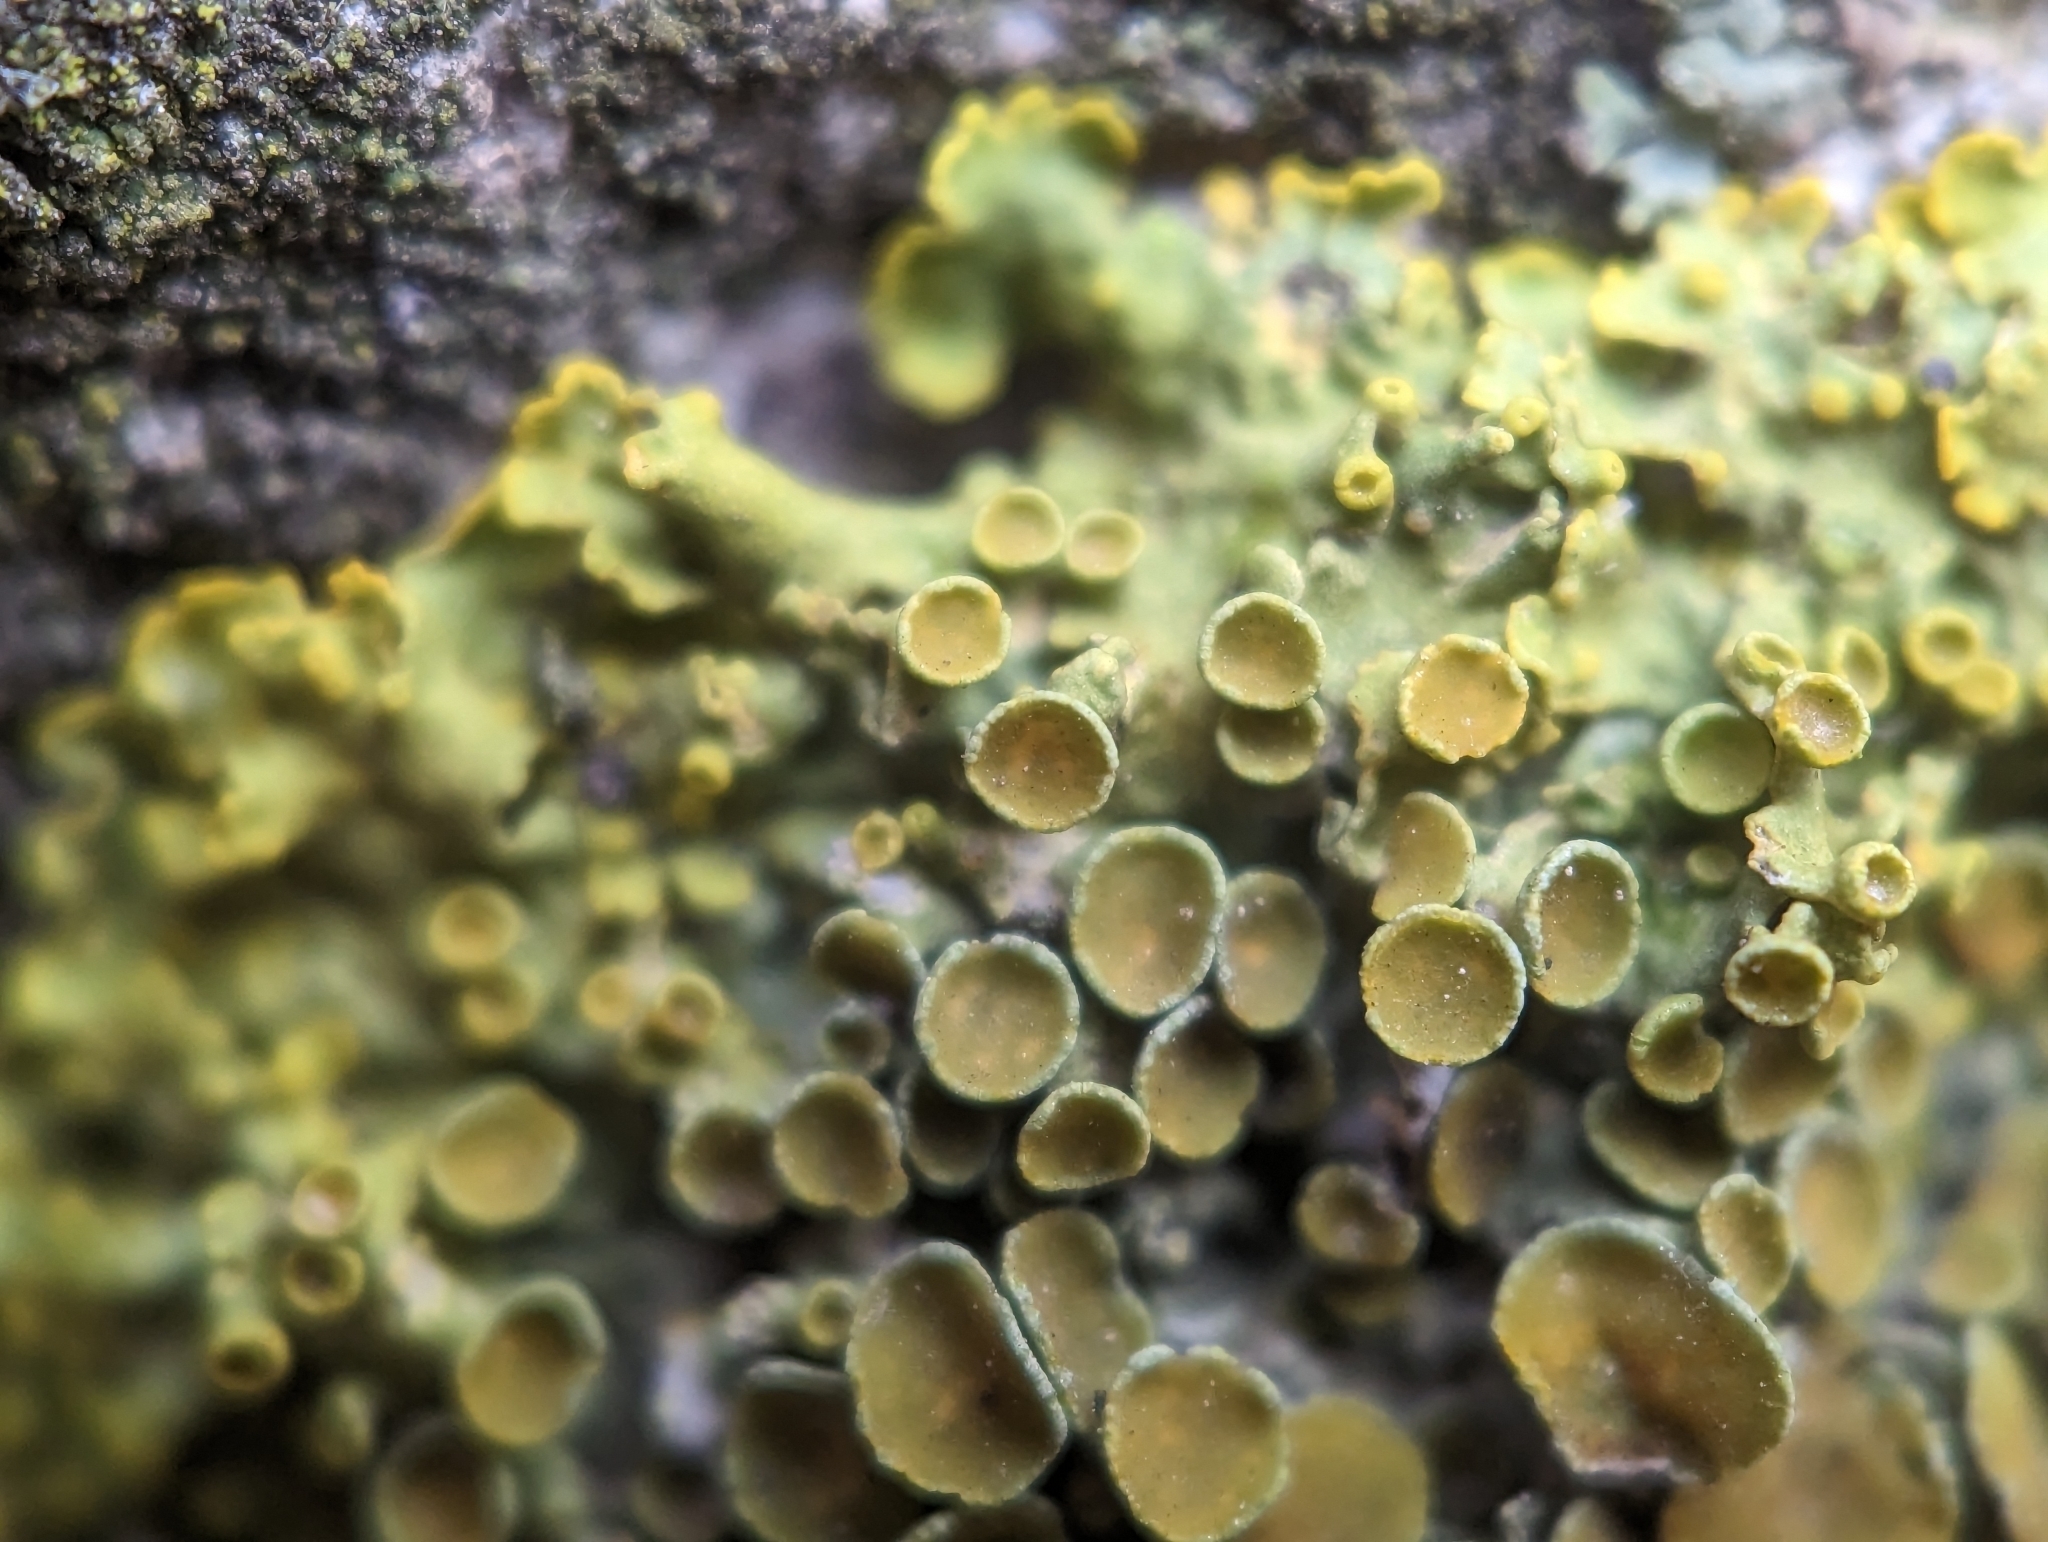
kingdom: Fungi
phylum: Ascomycota
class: Lecanoromycetes
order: Teloschistales
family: Teloschistaceae
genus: Xanthoria
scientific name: Xanthoria parietina
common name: Common orange lichen
